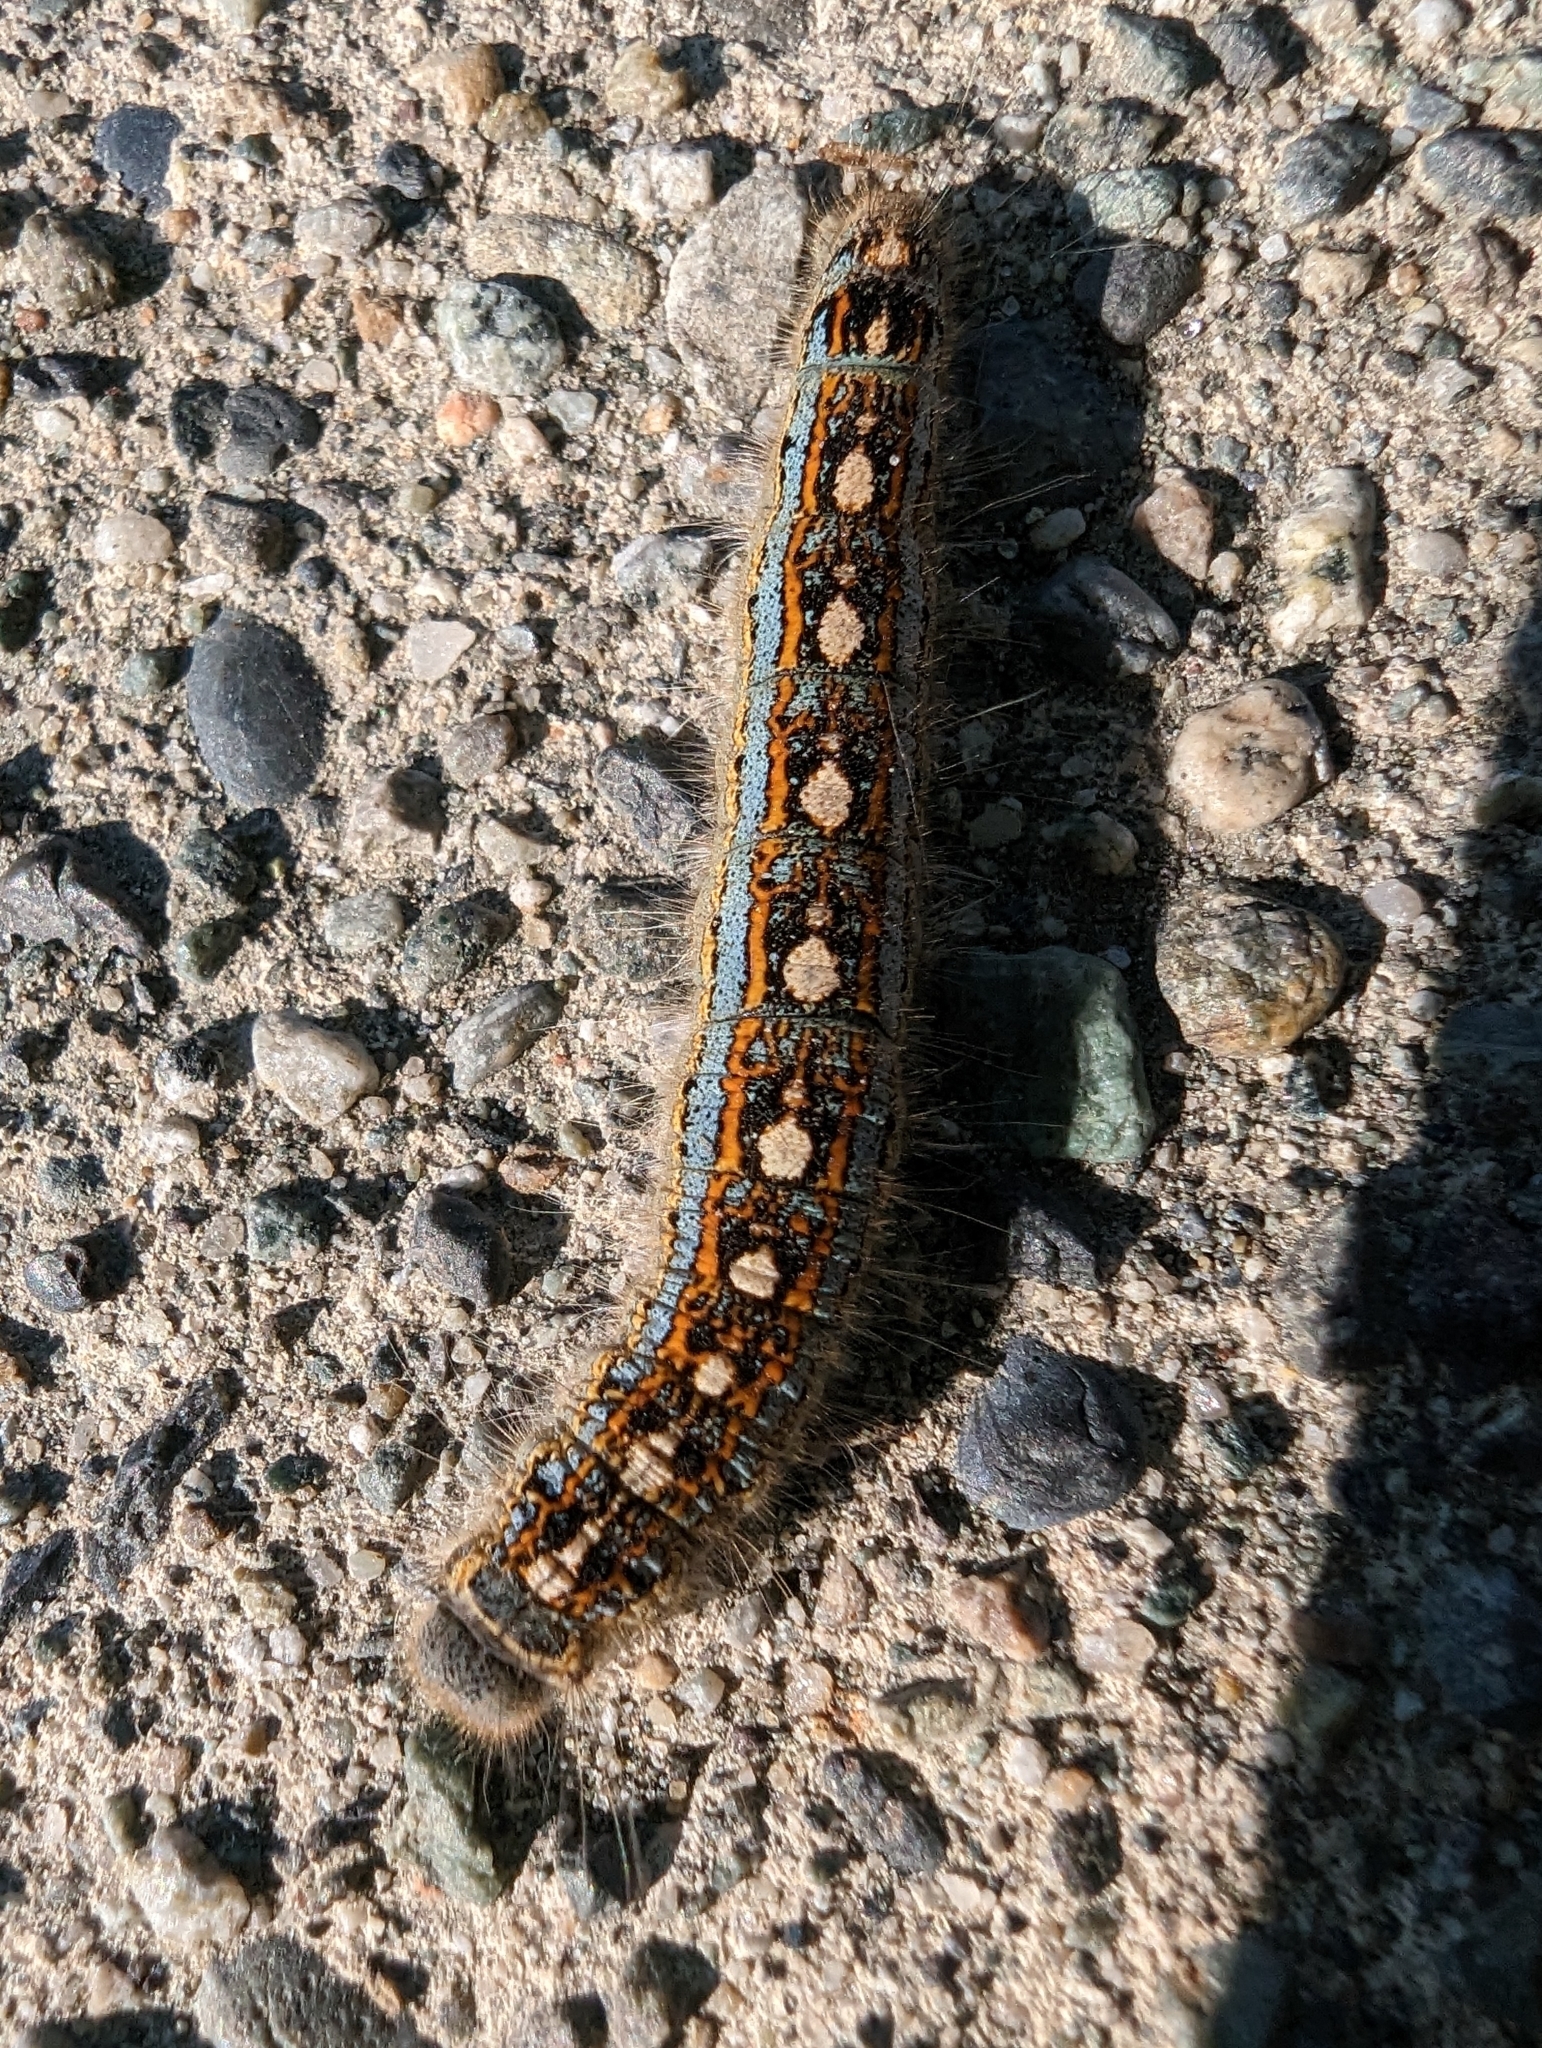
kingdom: Animalia
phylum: Arthropoda
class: Insecta
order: Lepidoptera
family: Lasiocampidae
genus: Malacosoma
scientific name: Malacosoma disstria
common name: Forest tent caterpillar
